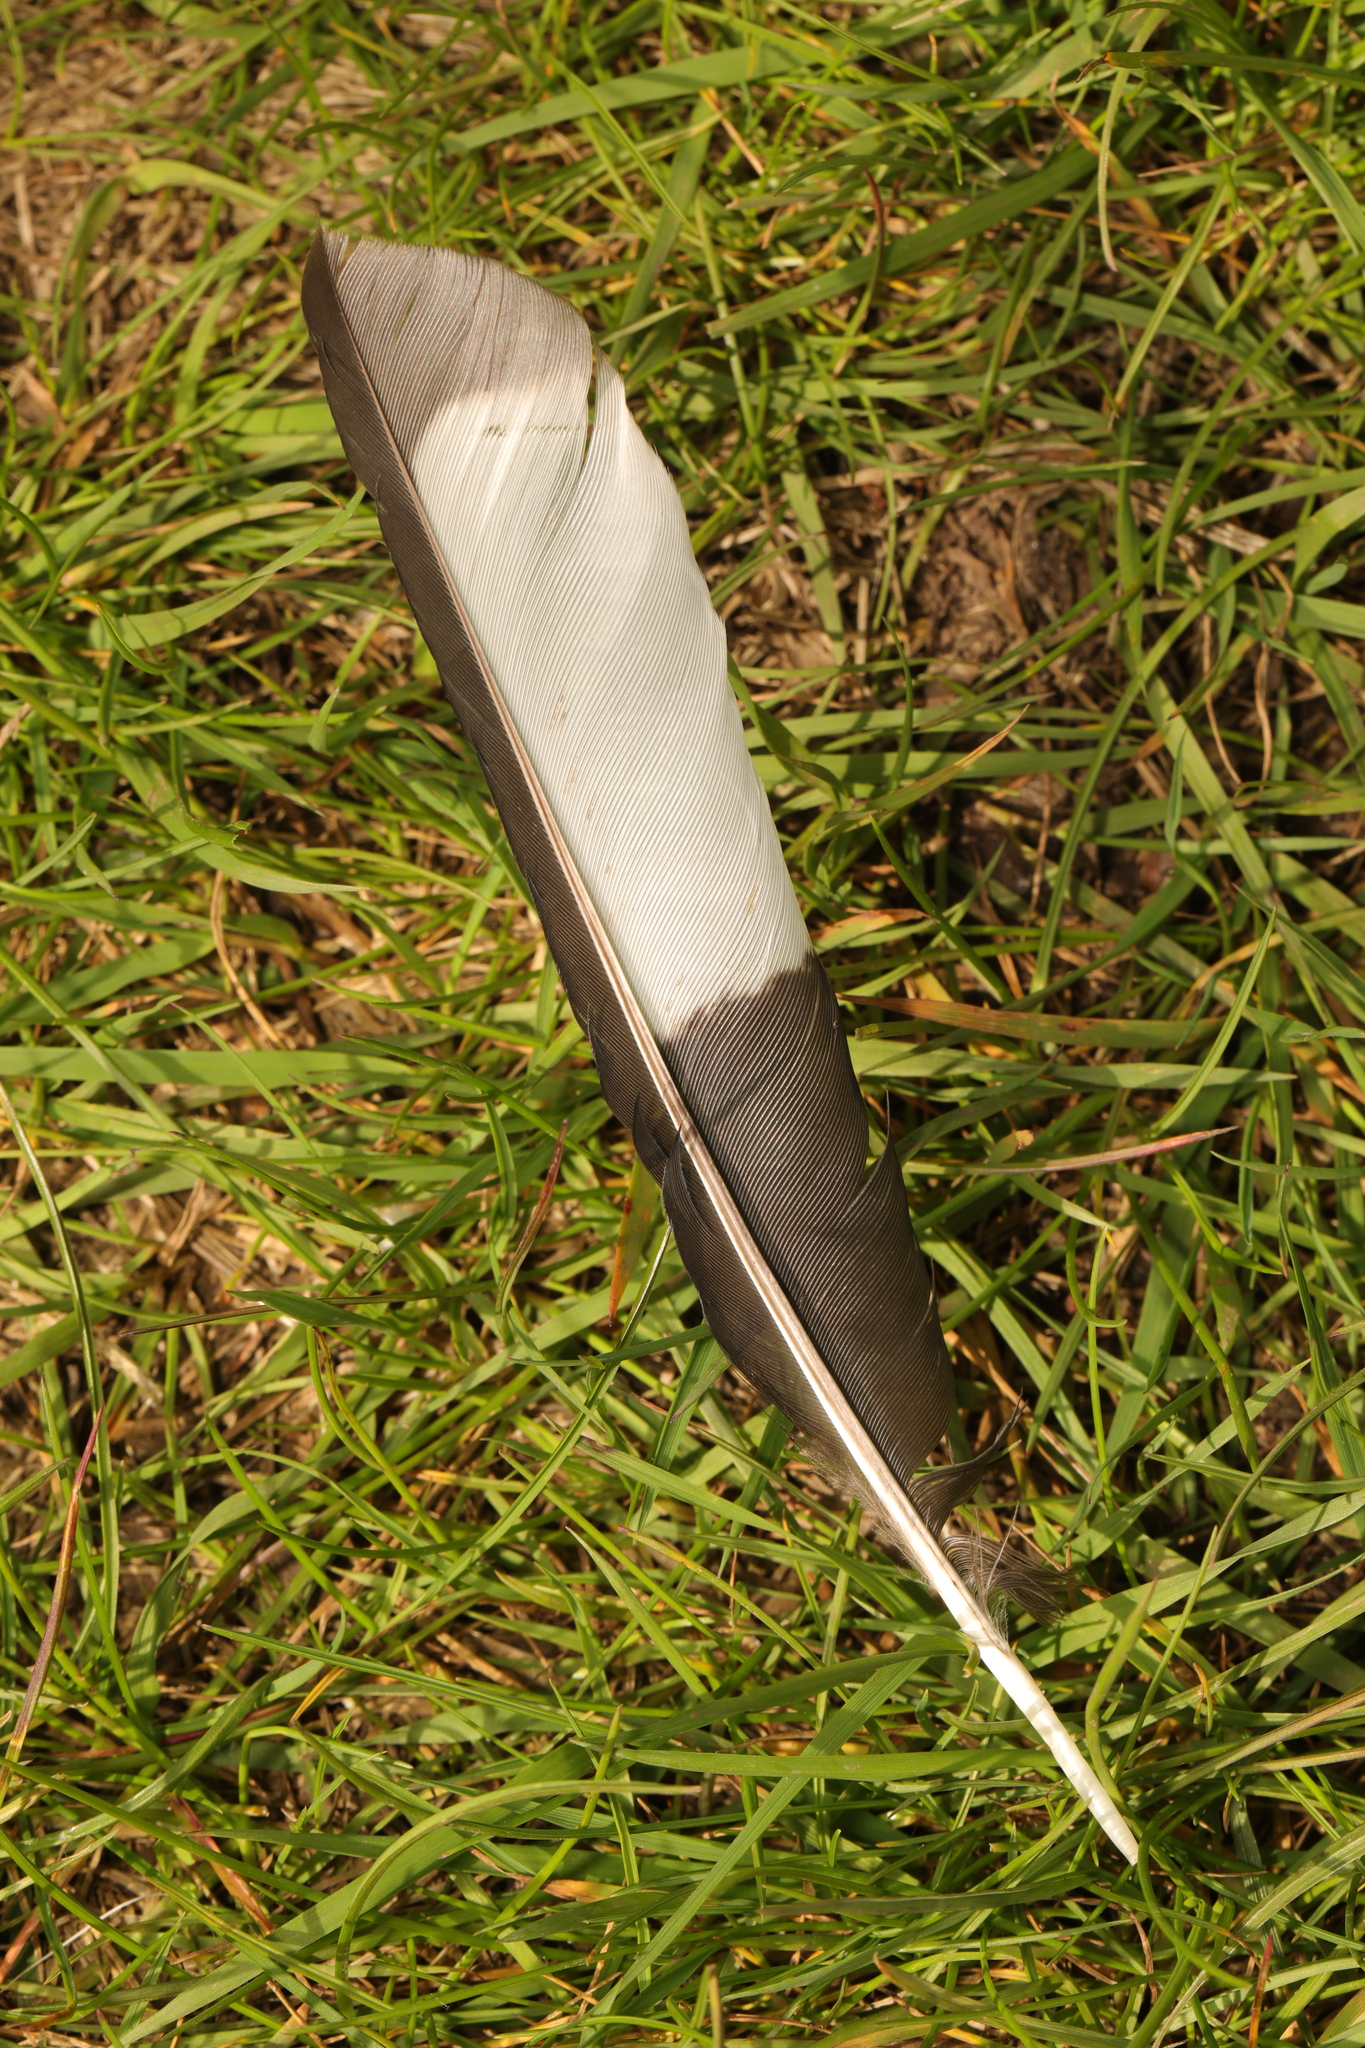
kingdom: Animalia
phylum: Chordata
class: Aves
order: Passeriformes
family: Corvidae
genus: Pica
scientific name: Pica pica
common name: Eurasian magpie
